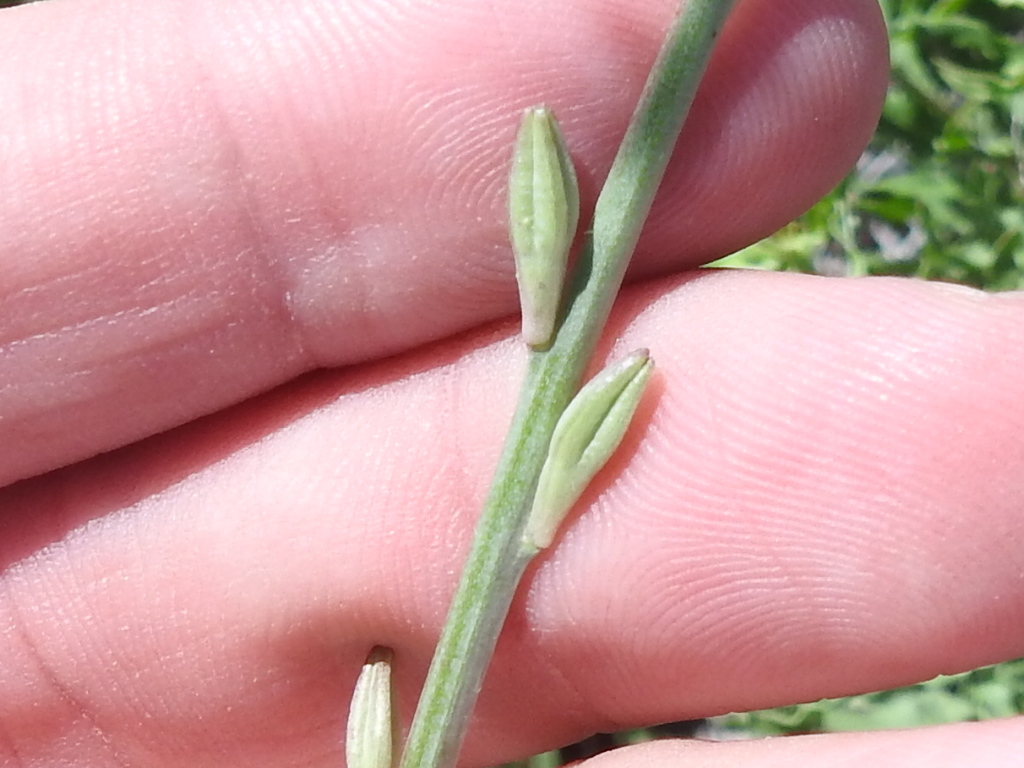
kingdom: Plantae
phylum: Tracheophyta
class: Magnoliopsida
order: Myrtales
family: Onagraceae
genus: Oenothera
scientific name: Oenothera suffulta
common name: Kisses
